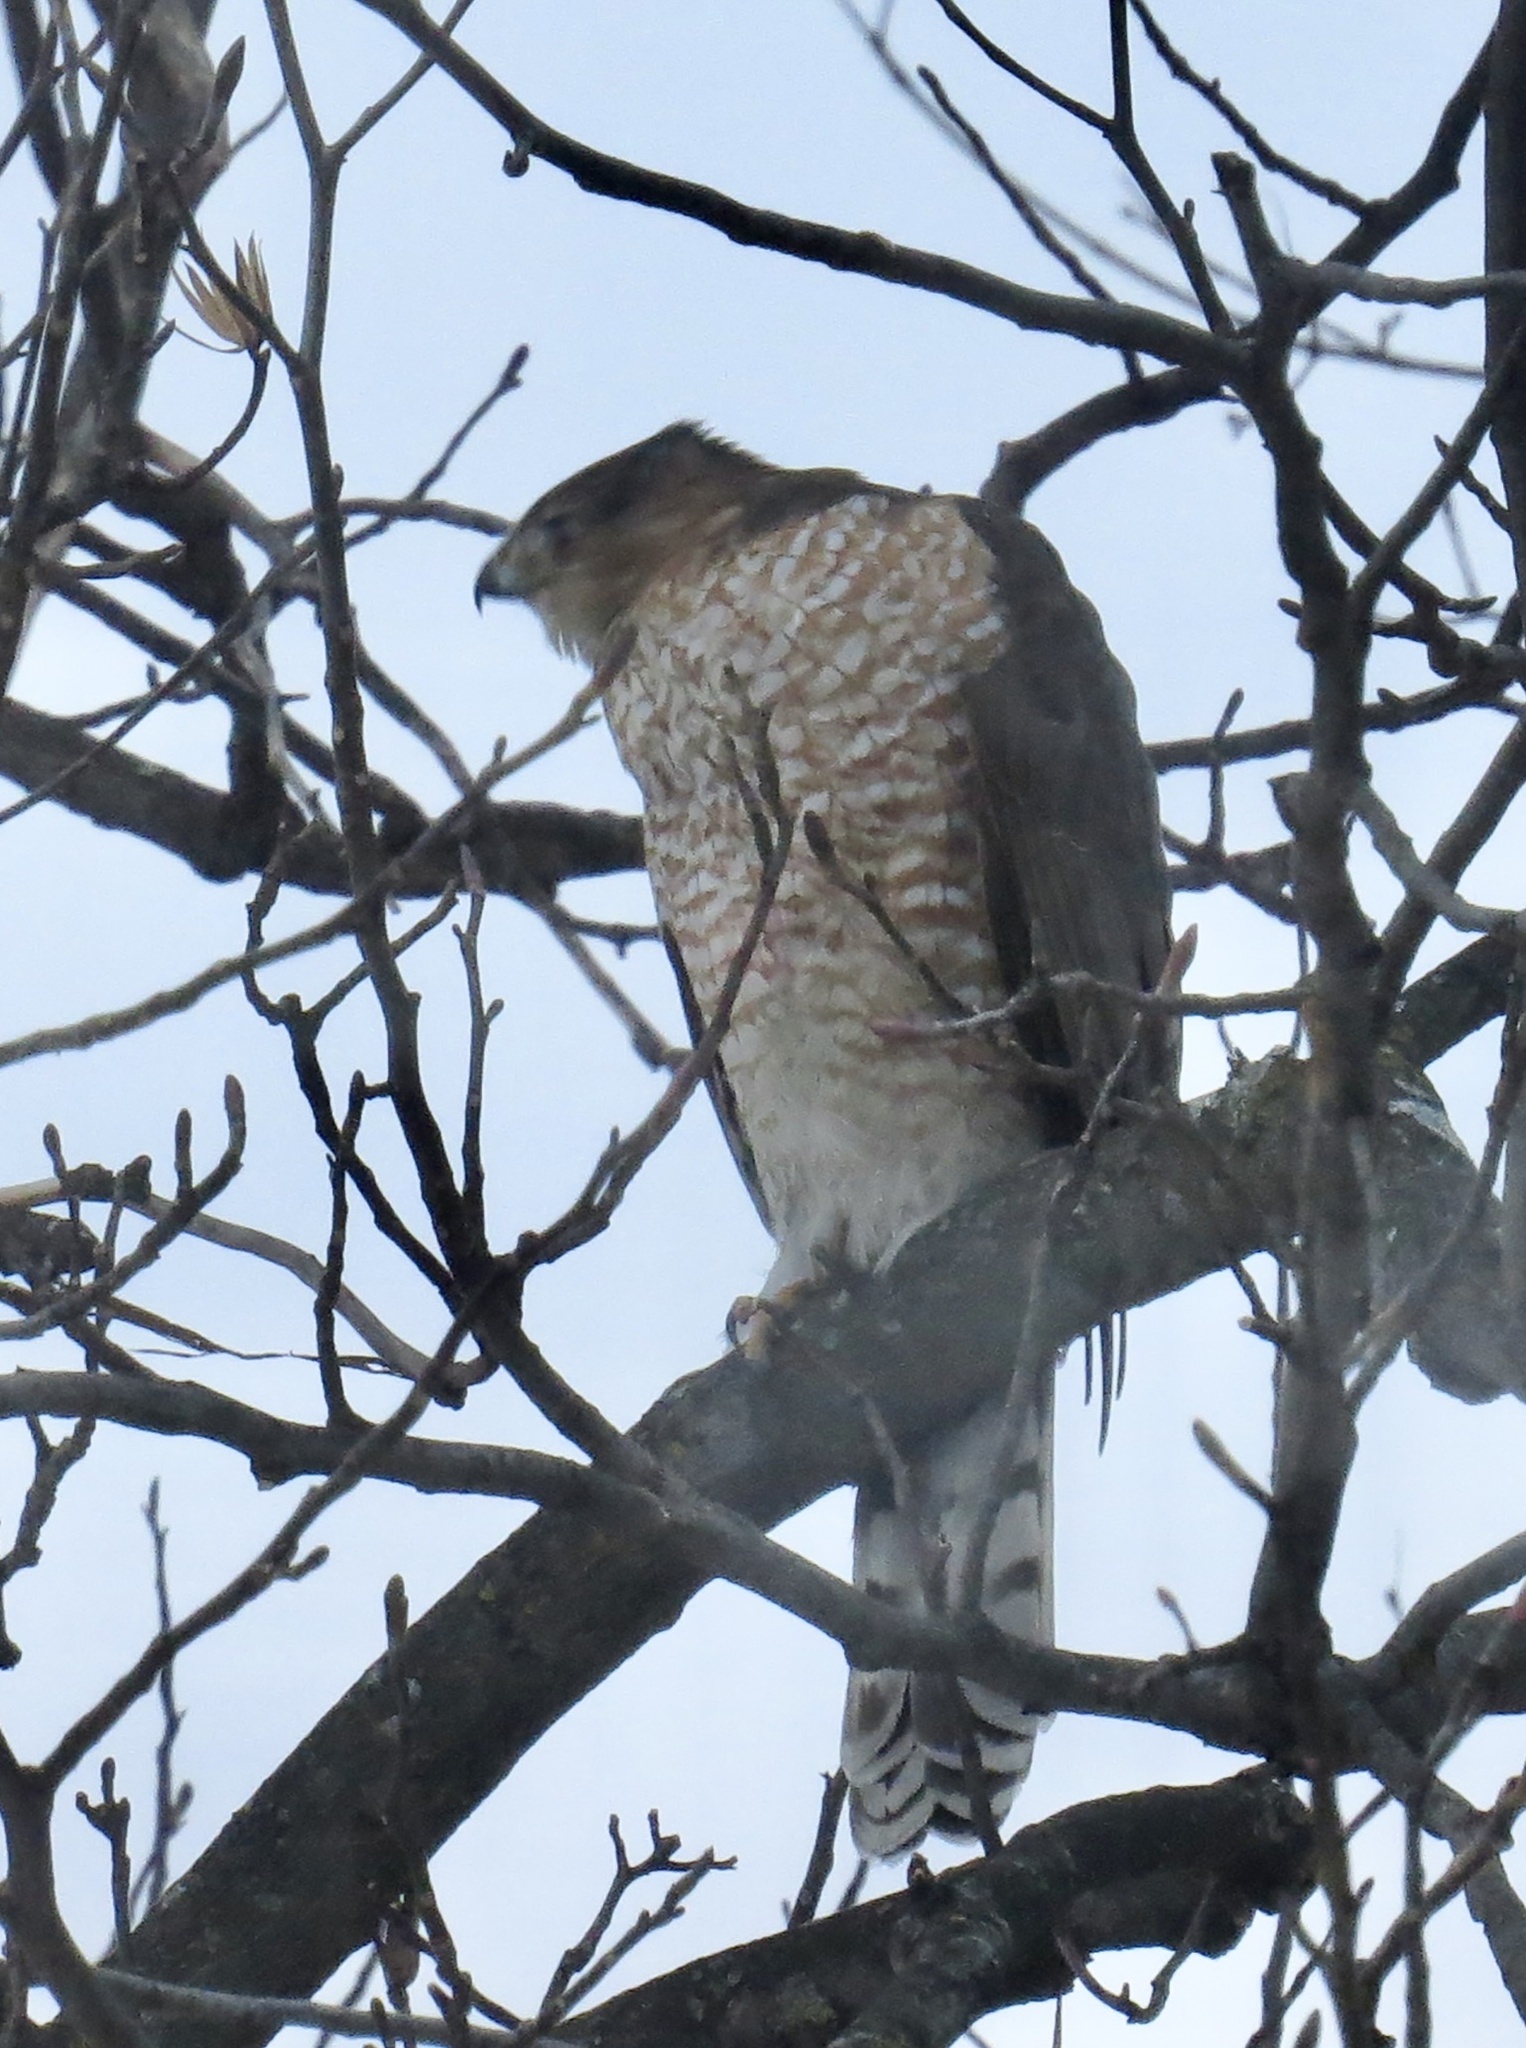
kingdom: Animalia
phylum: Chordata
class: Aves
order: Accipitriformes
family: Accipitridae
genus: Accipiter
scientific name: Accipiter cooperii
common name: Cooper's hawk
